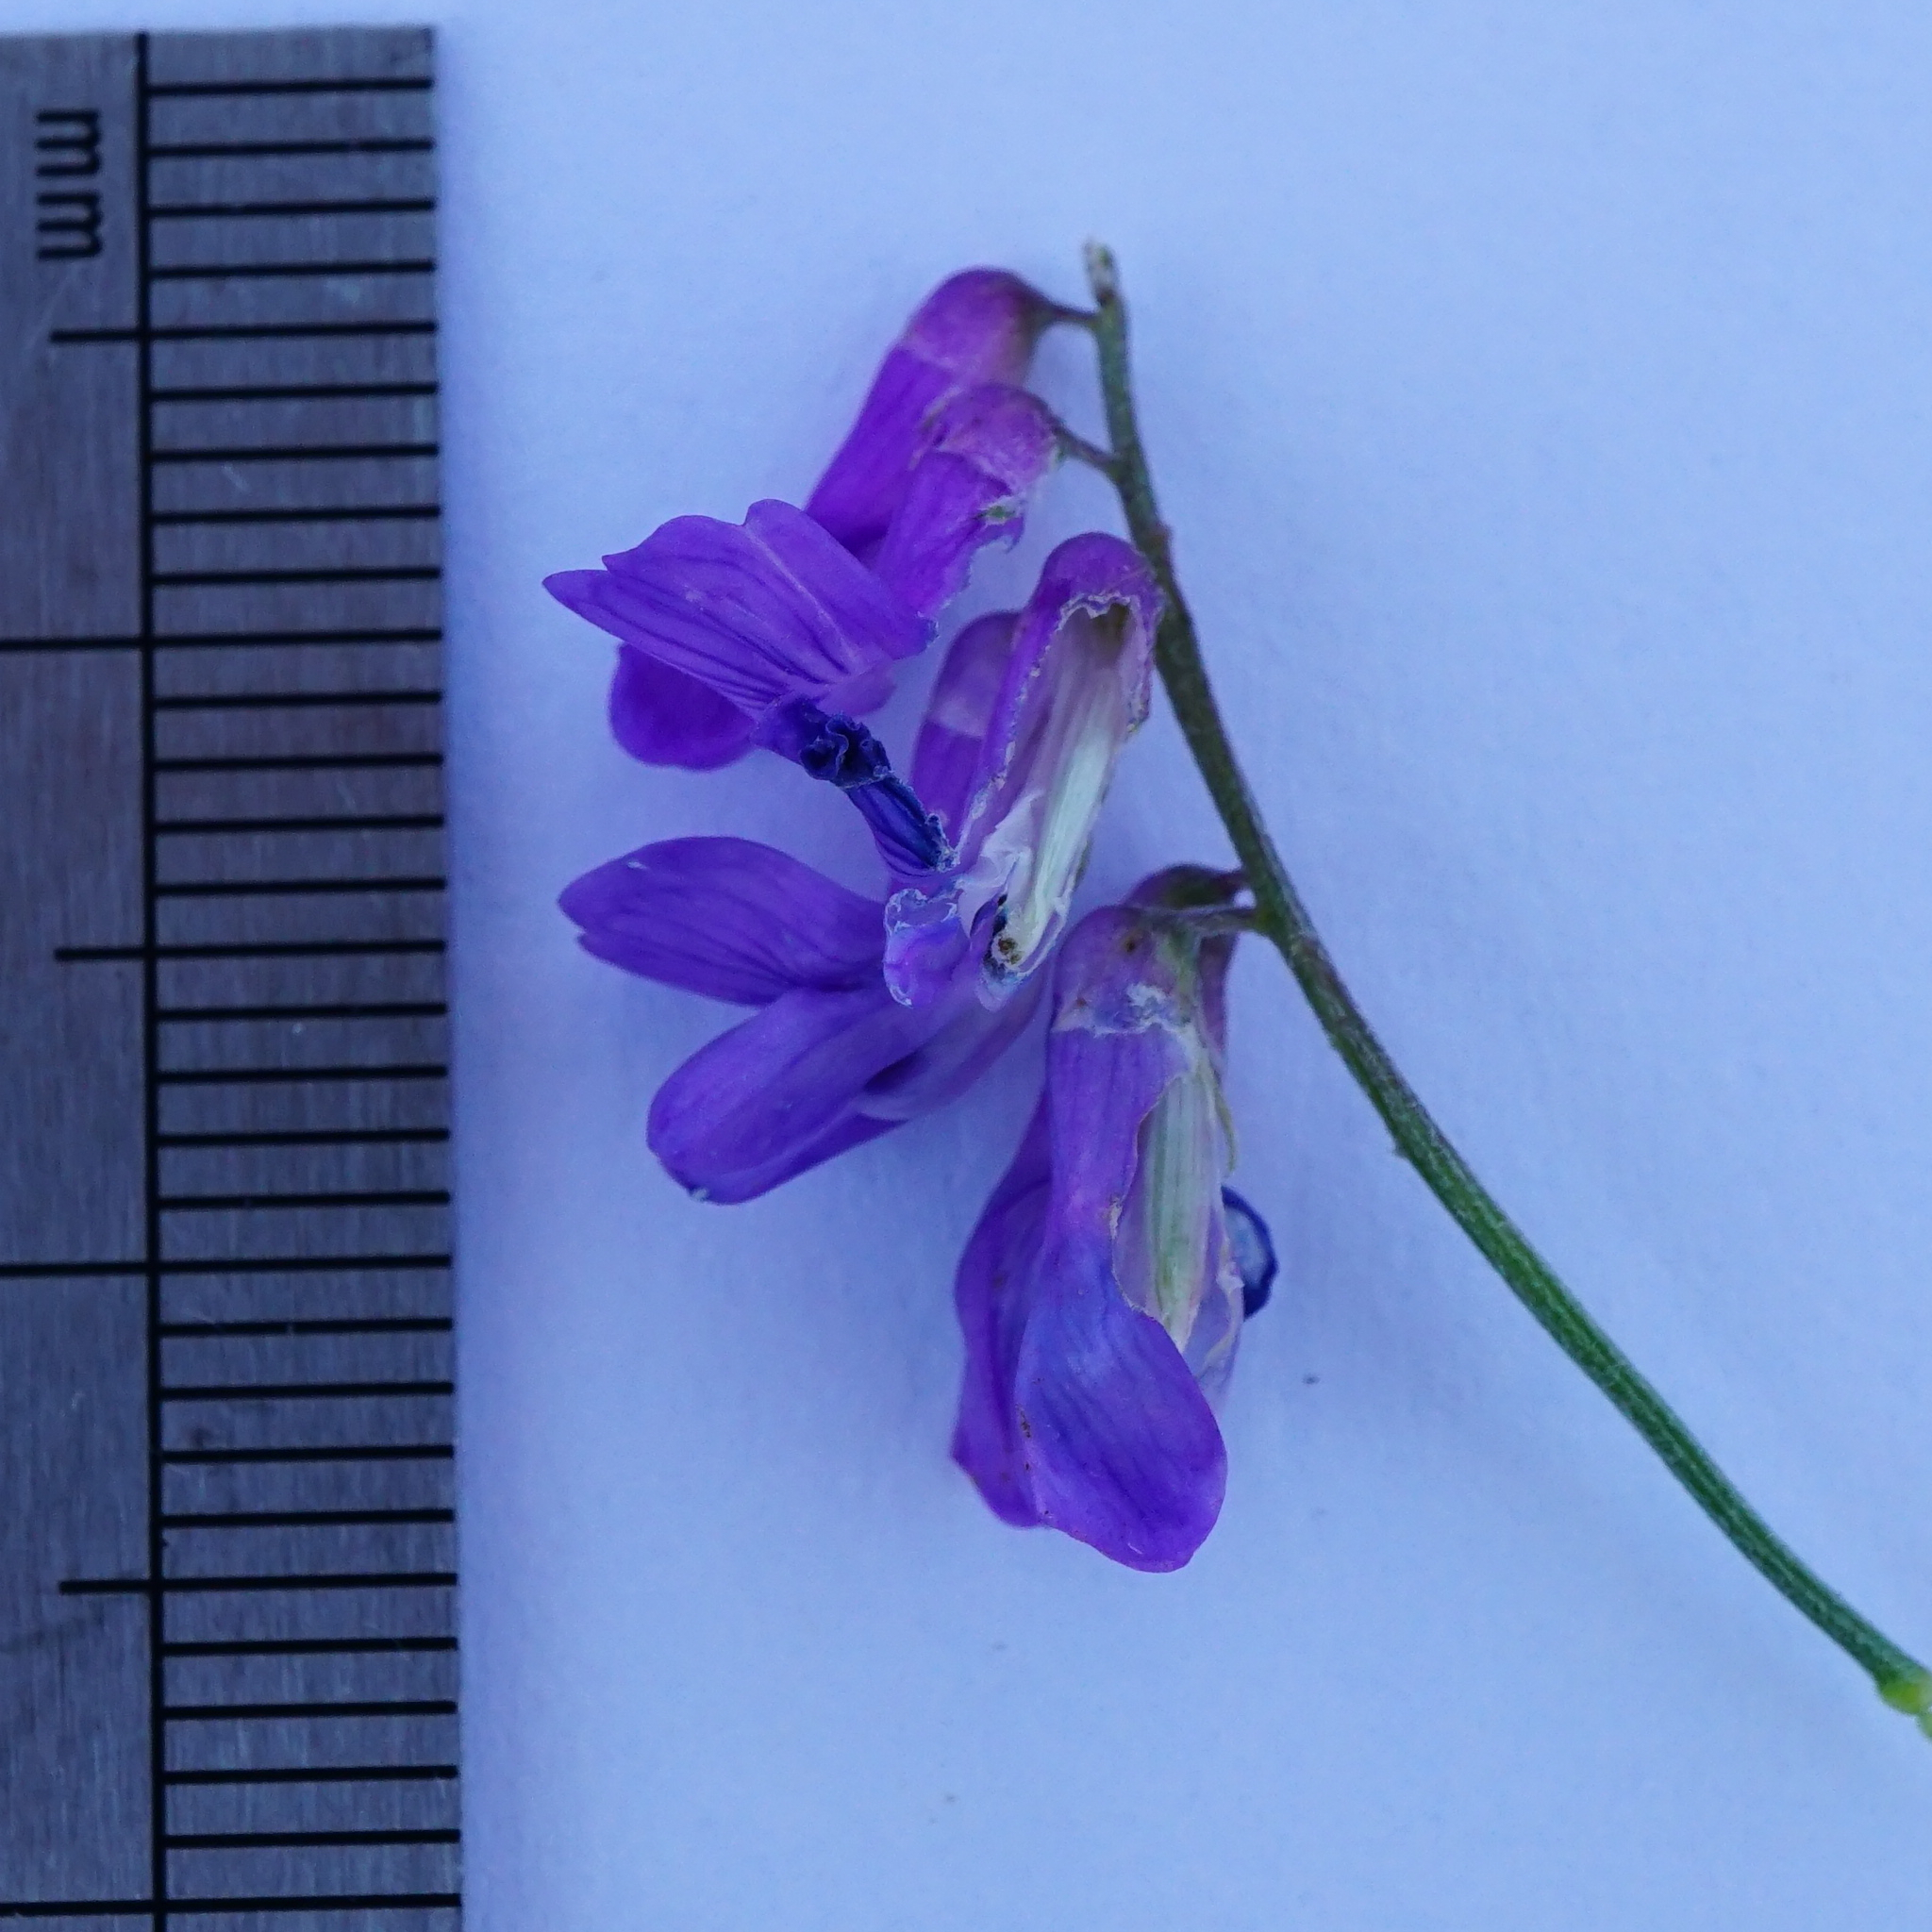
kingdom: Plantae
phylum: Tracheophyta
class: Magnoliopsida
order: Fabales
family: Fabaceae
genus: Vicia
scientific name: Vicia cracca
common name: Bird vetch
